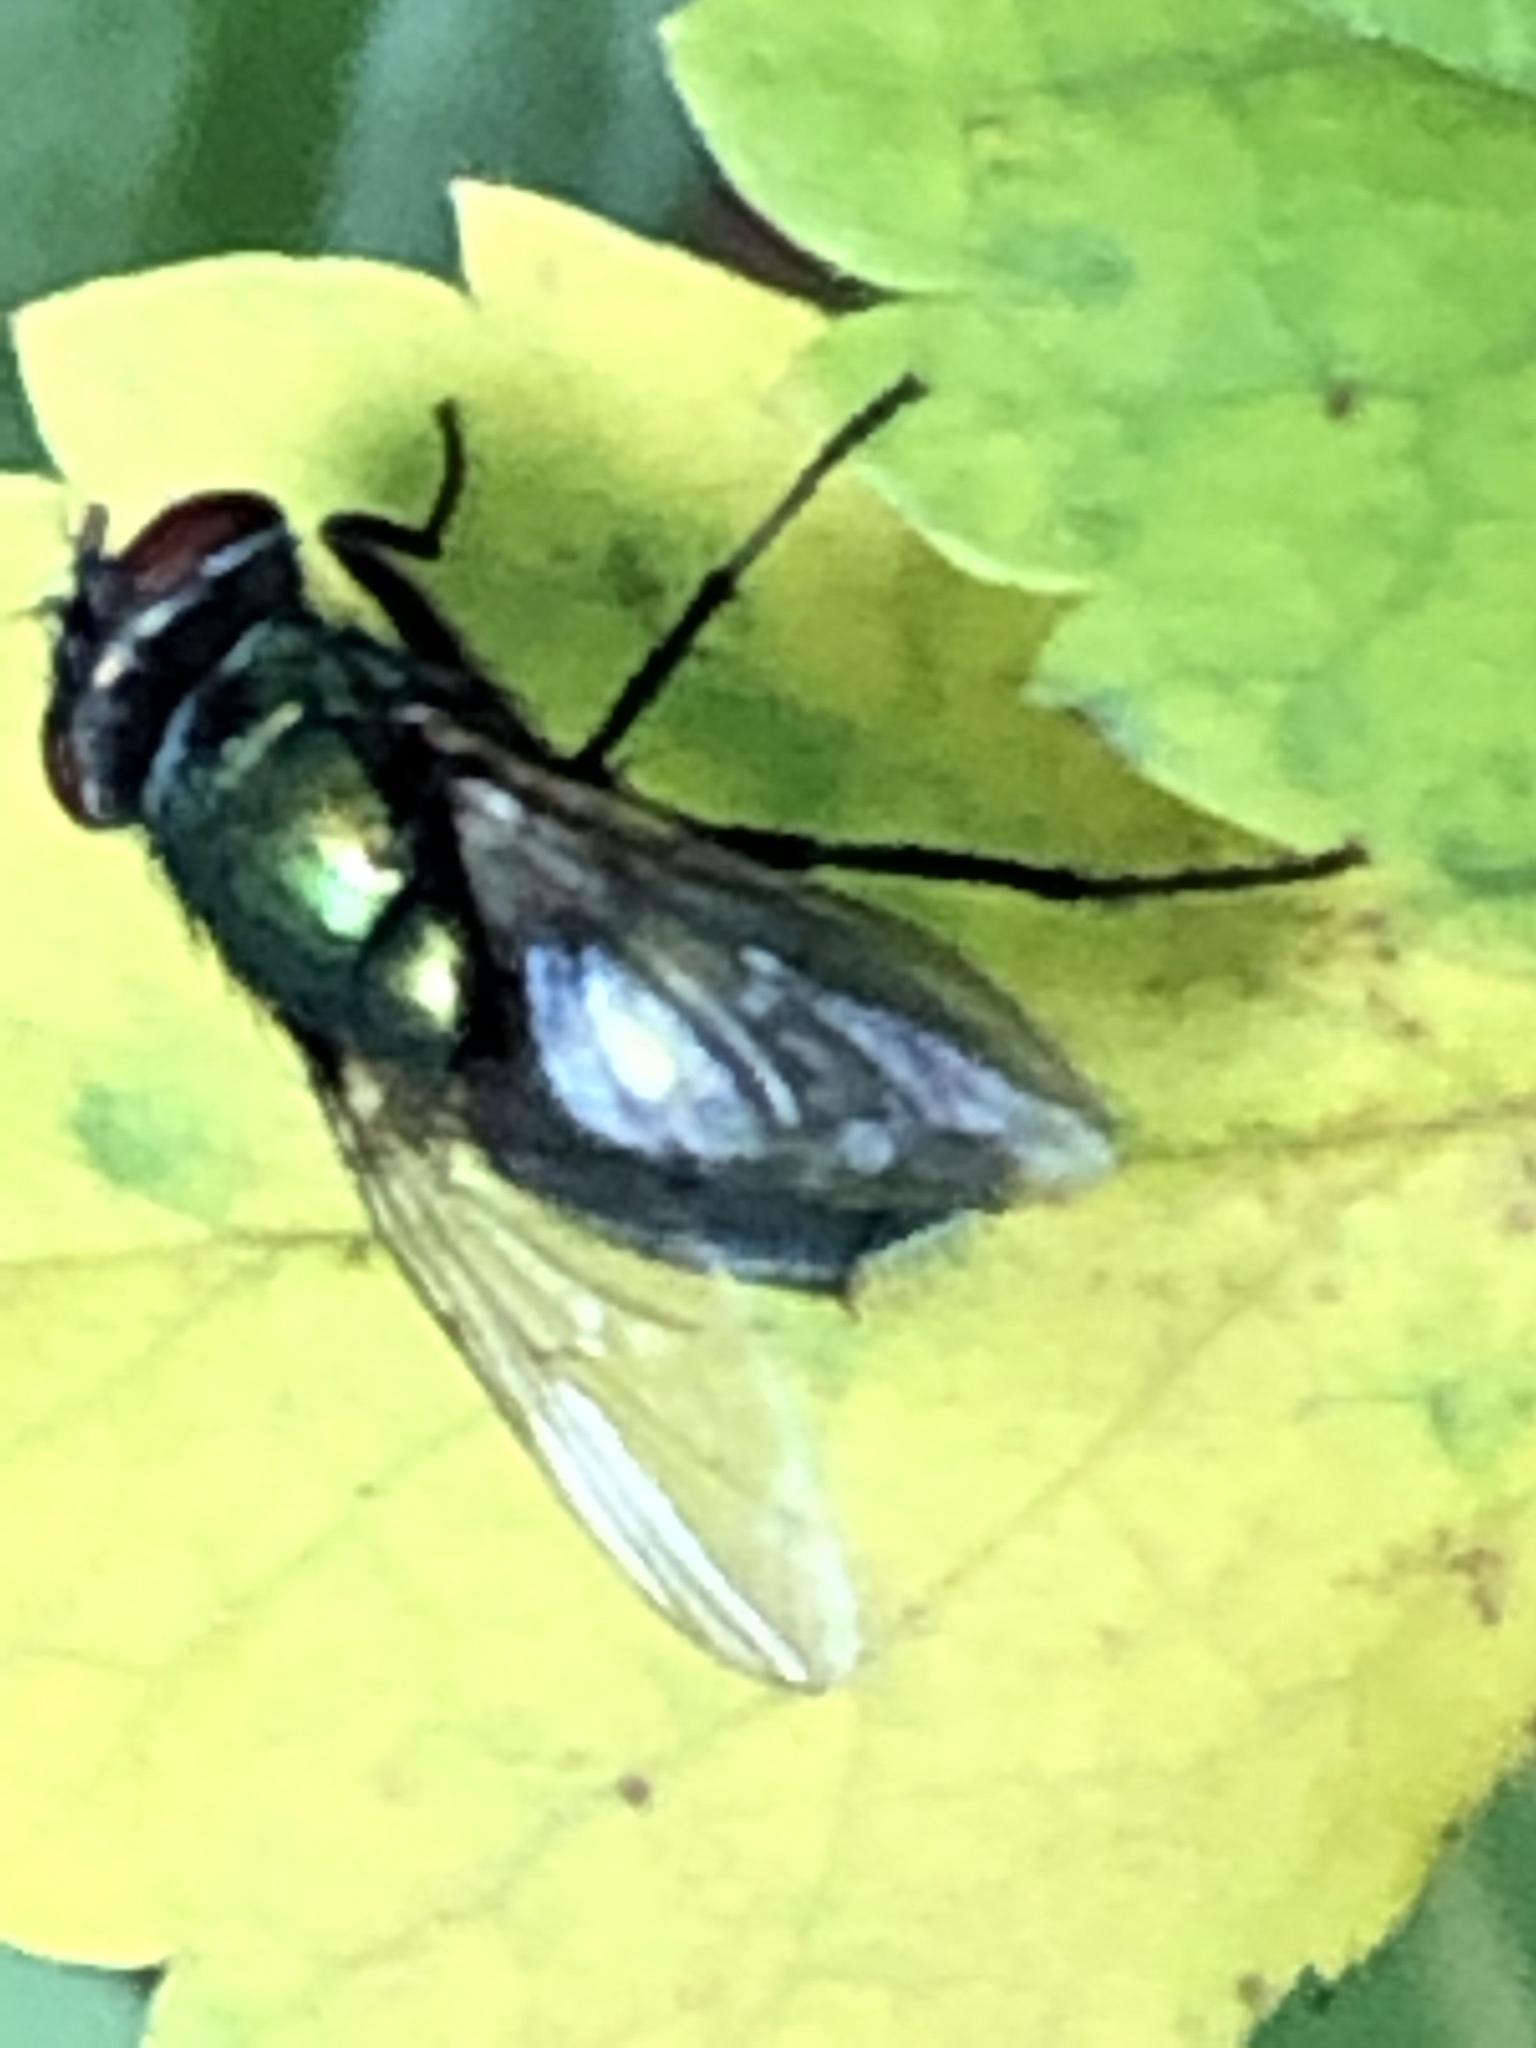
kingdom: Animalia
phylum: Arthropoda
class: Insecta
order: Diptera
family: Calliphoridae
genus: Lucilia
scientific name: Lucilia sericata
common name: Blow fly
